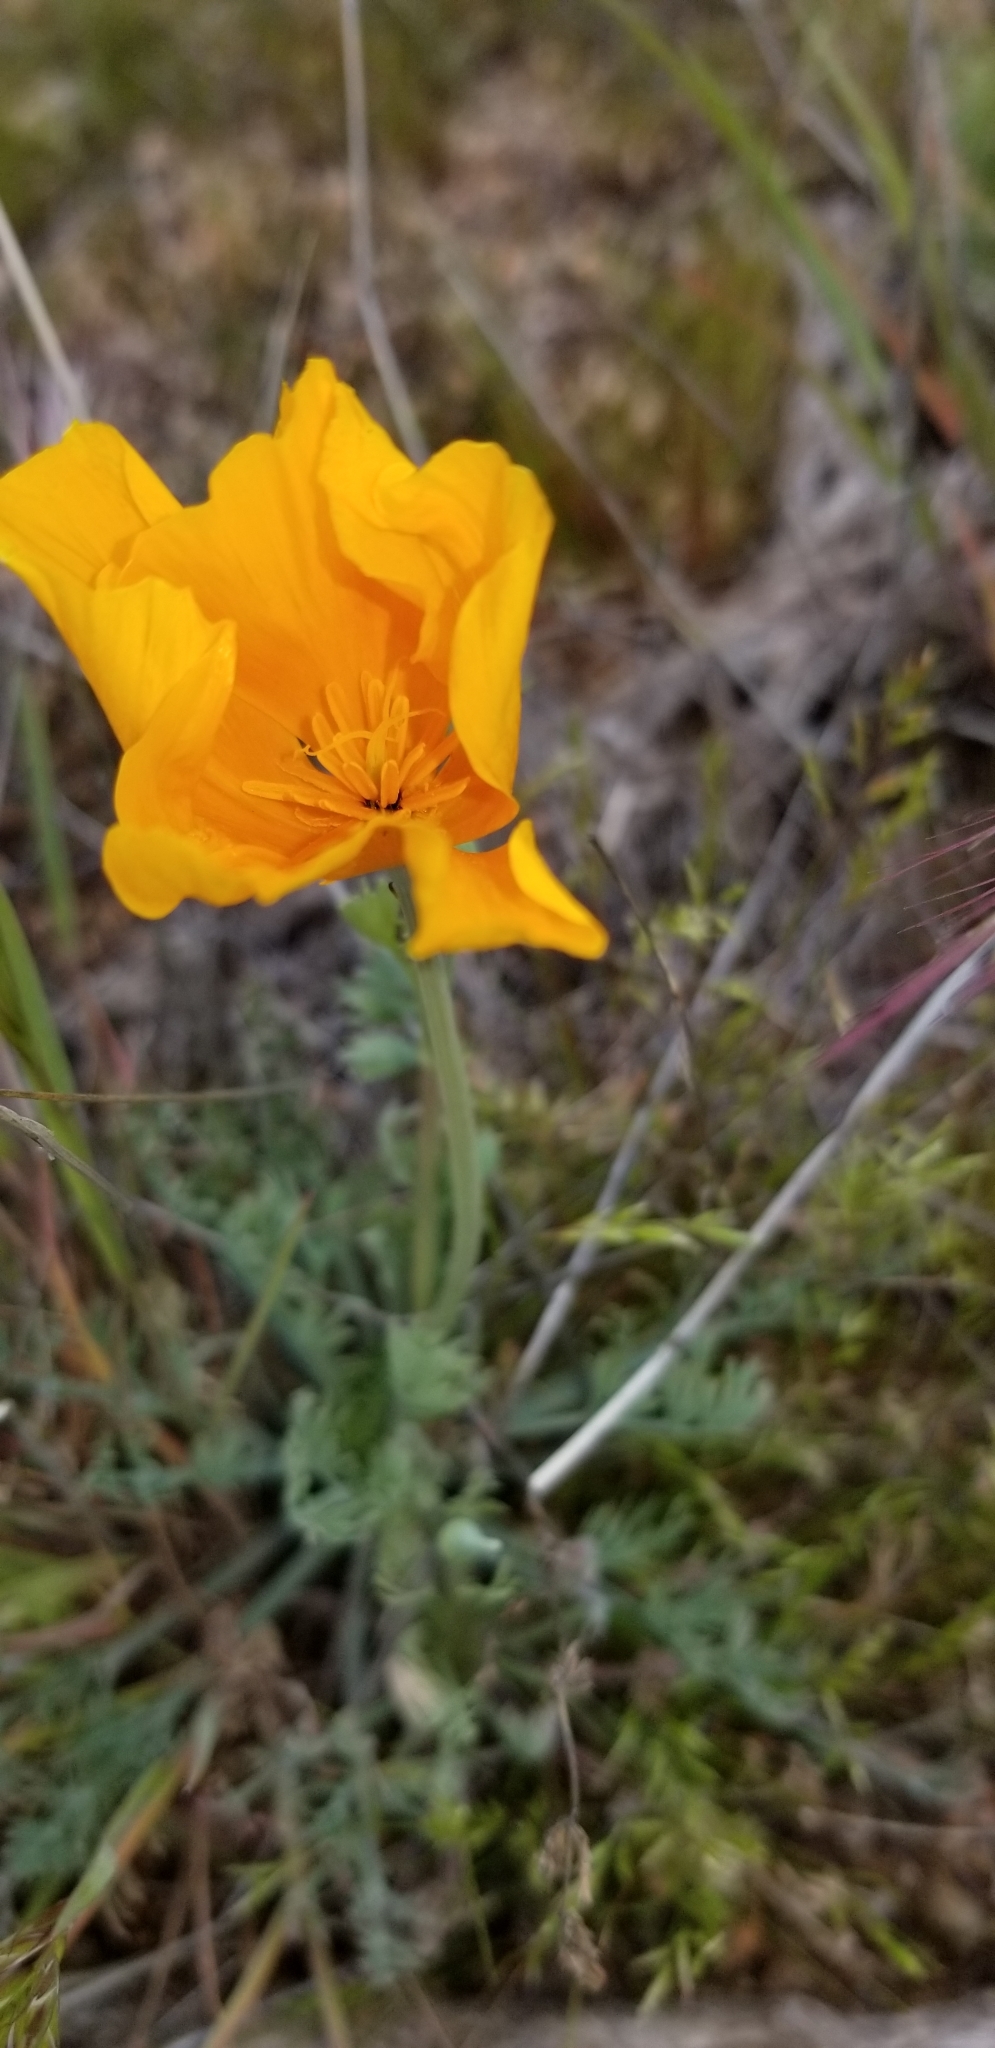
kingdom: Plantae
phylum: Tracheophyta
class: Magnoliopsida
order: Ranunculales
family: Papaveraceae
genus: Eschscholzia
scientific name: Eschscholzia californica
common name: California poppy
